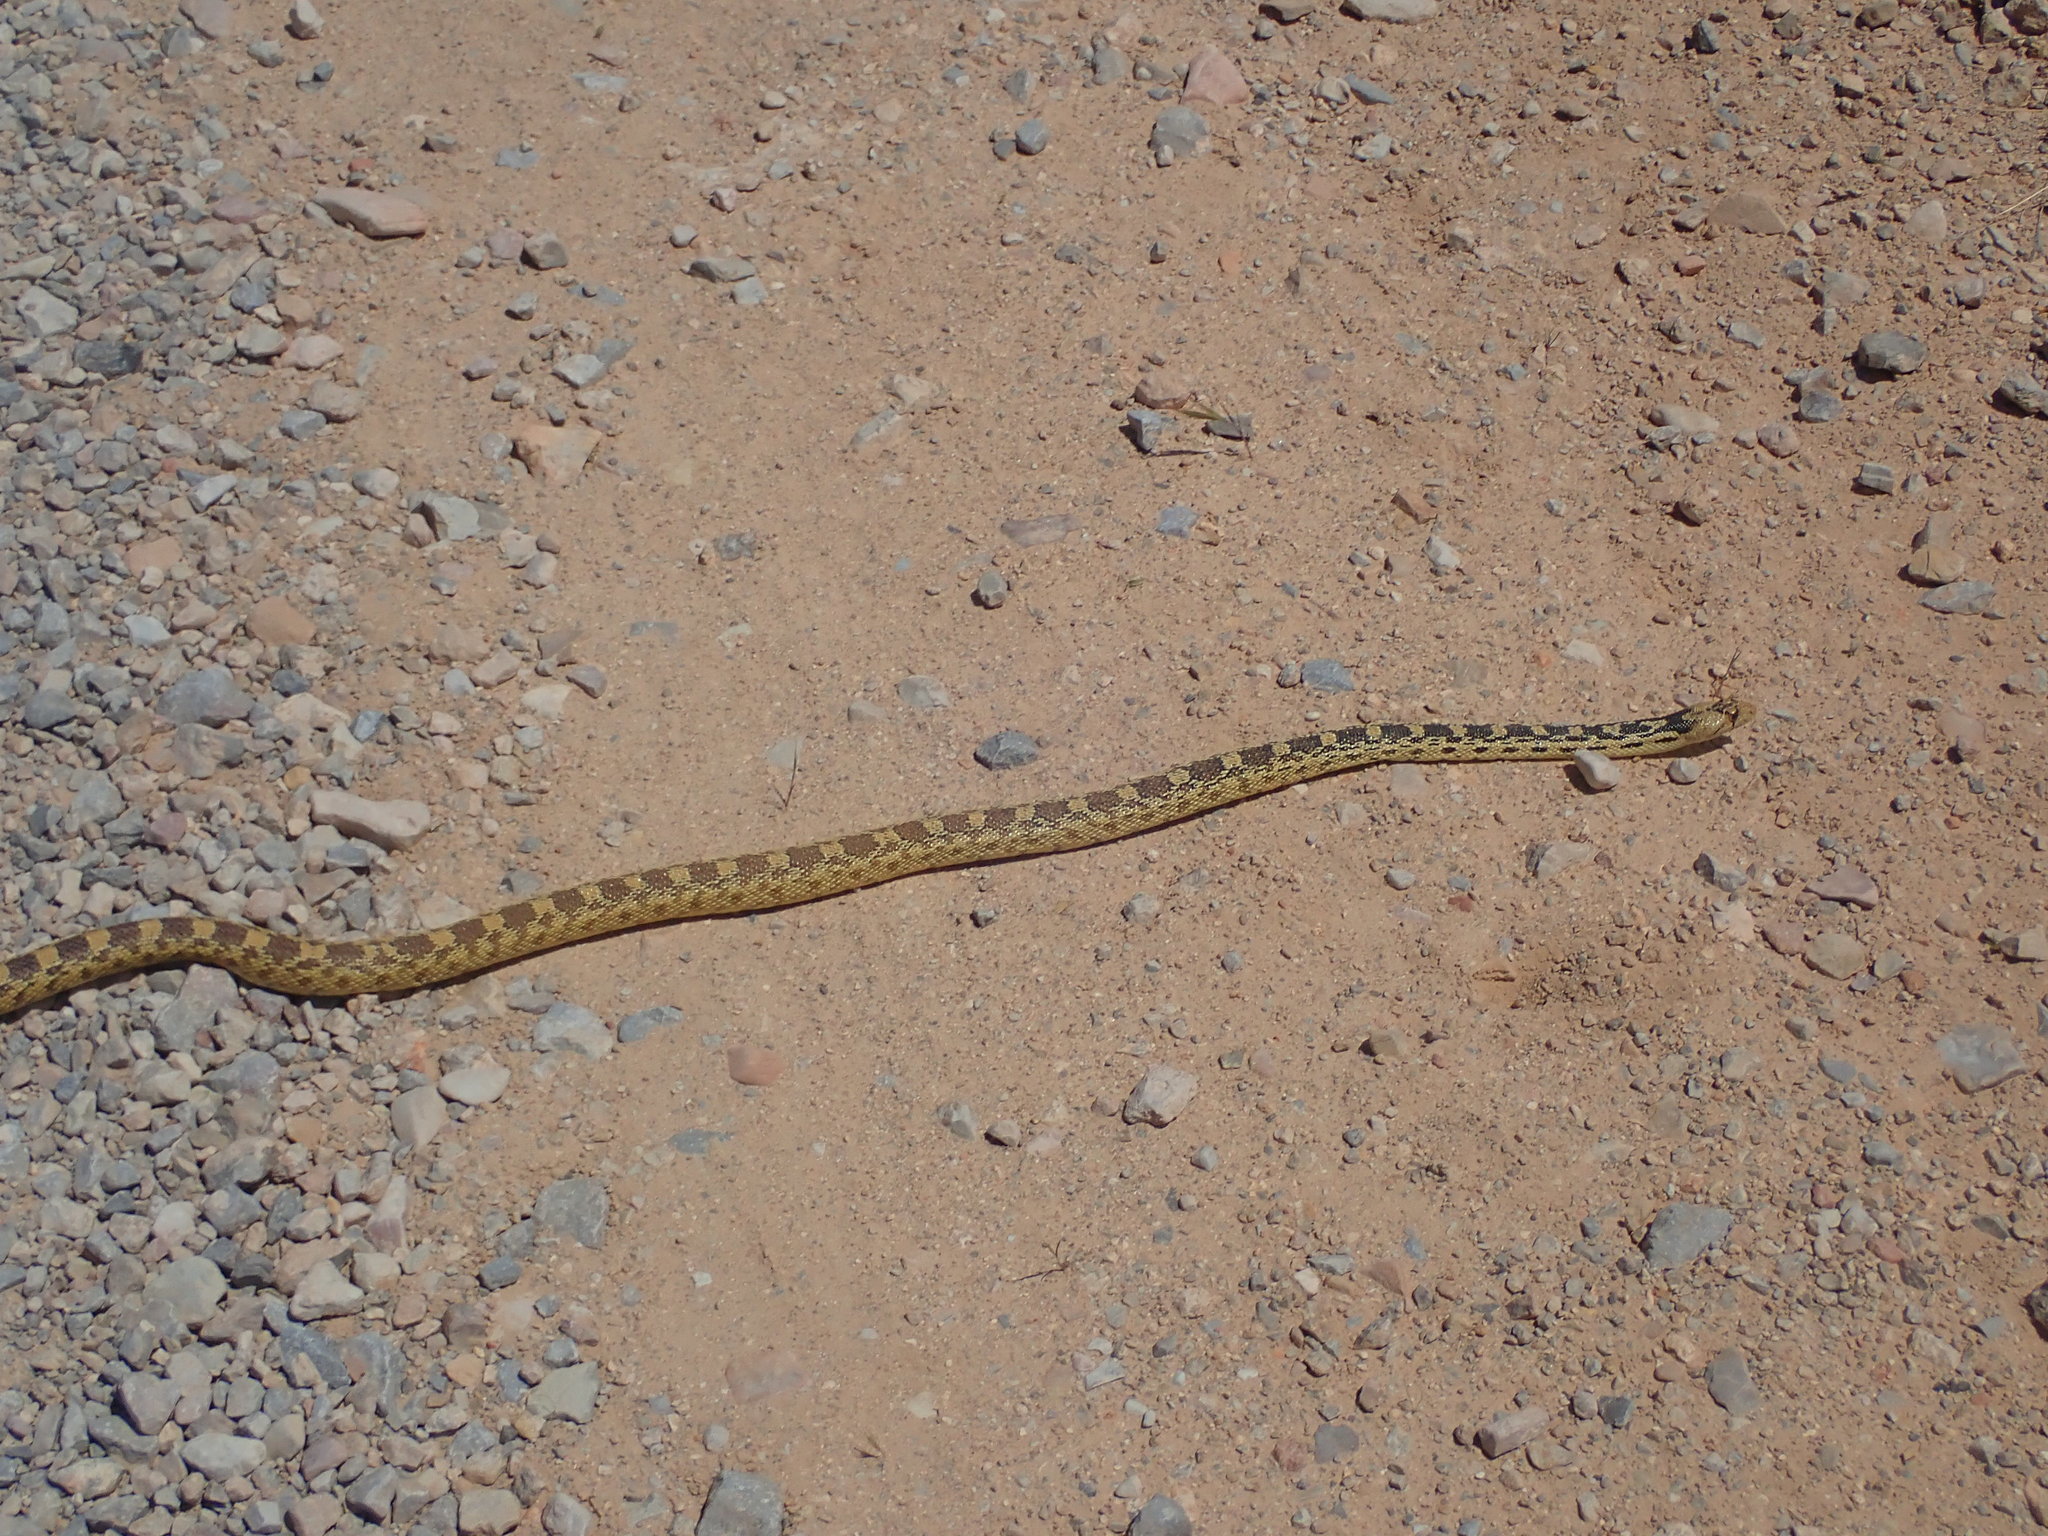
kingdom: Animalia
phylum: Chordata
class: Squamata
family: Colubridae
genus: Pituophis
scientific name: Pituophis catenifer
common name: Gopher snake
